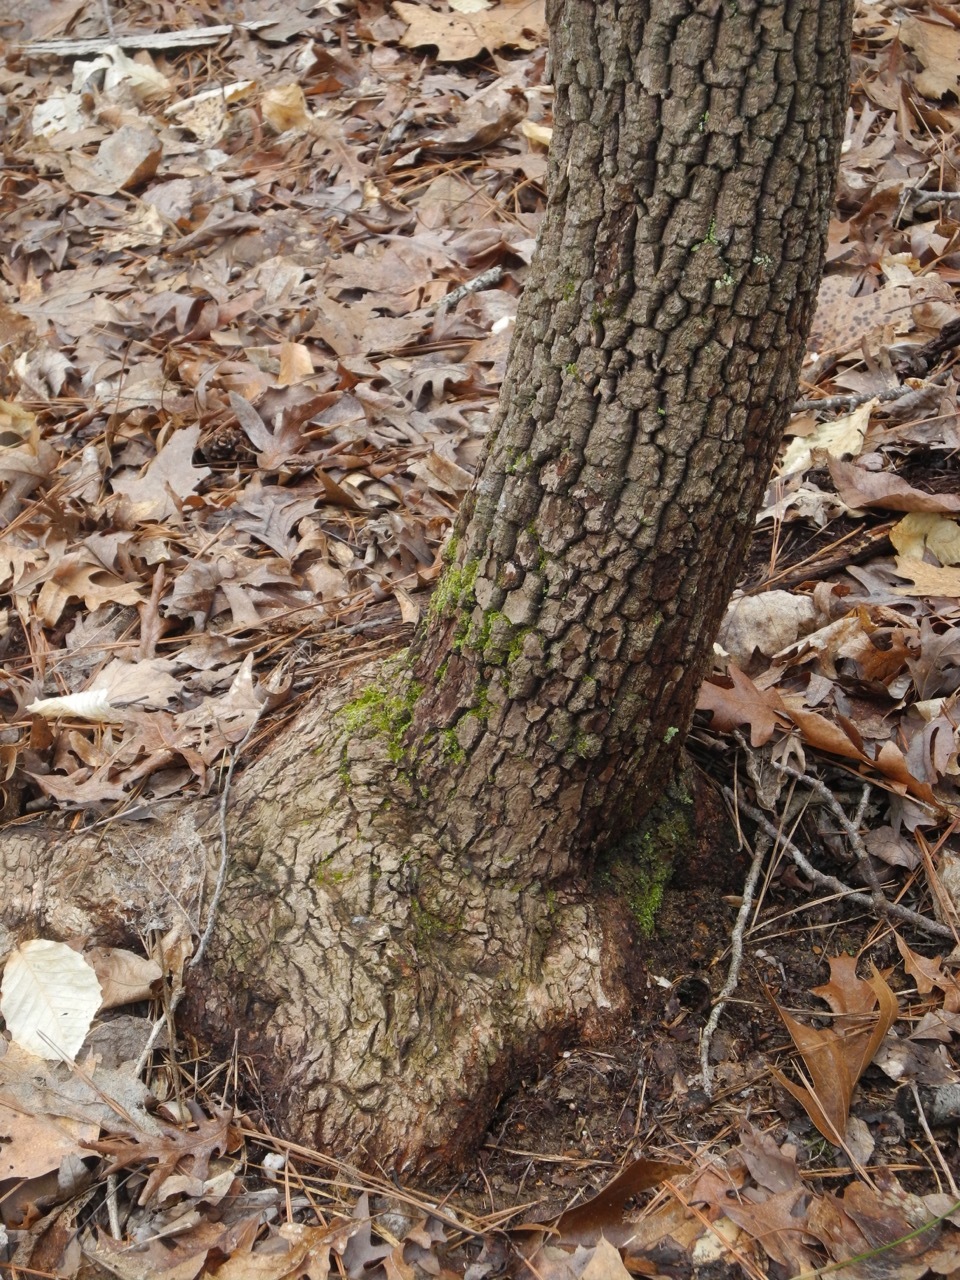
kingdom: Plantae
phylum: Tracheophyta
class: Magnoliopsida
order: Ericales
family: Ericaceae
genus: Oxydendrum
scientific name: Oxydendrum arboreum
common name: Sourwood
